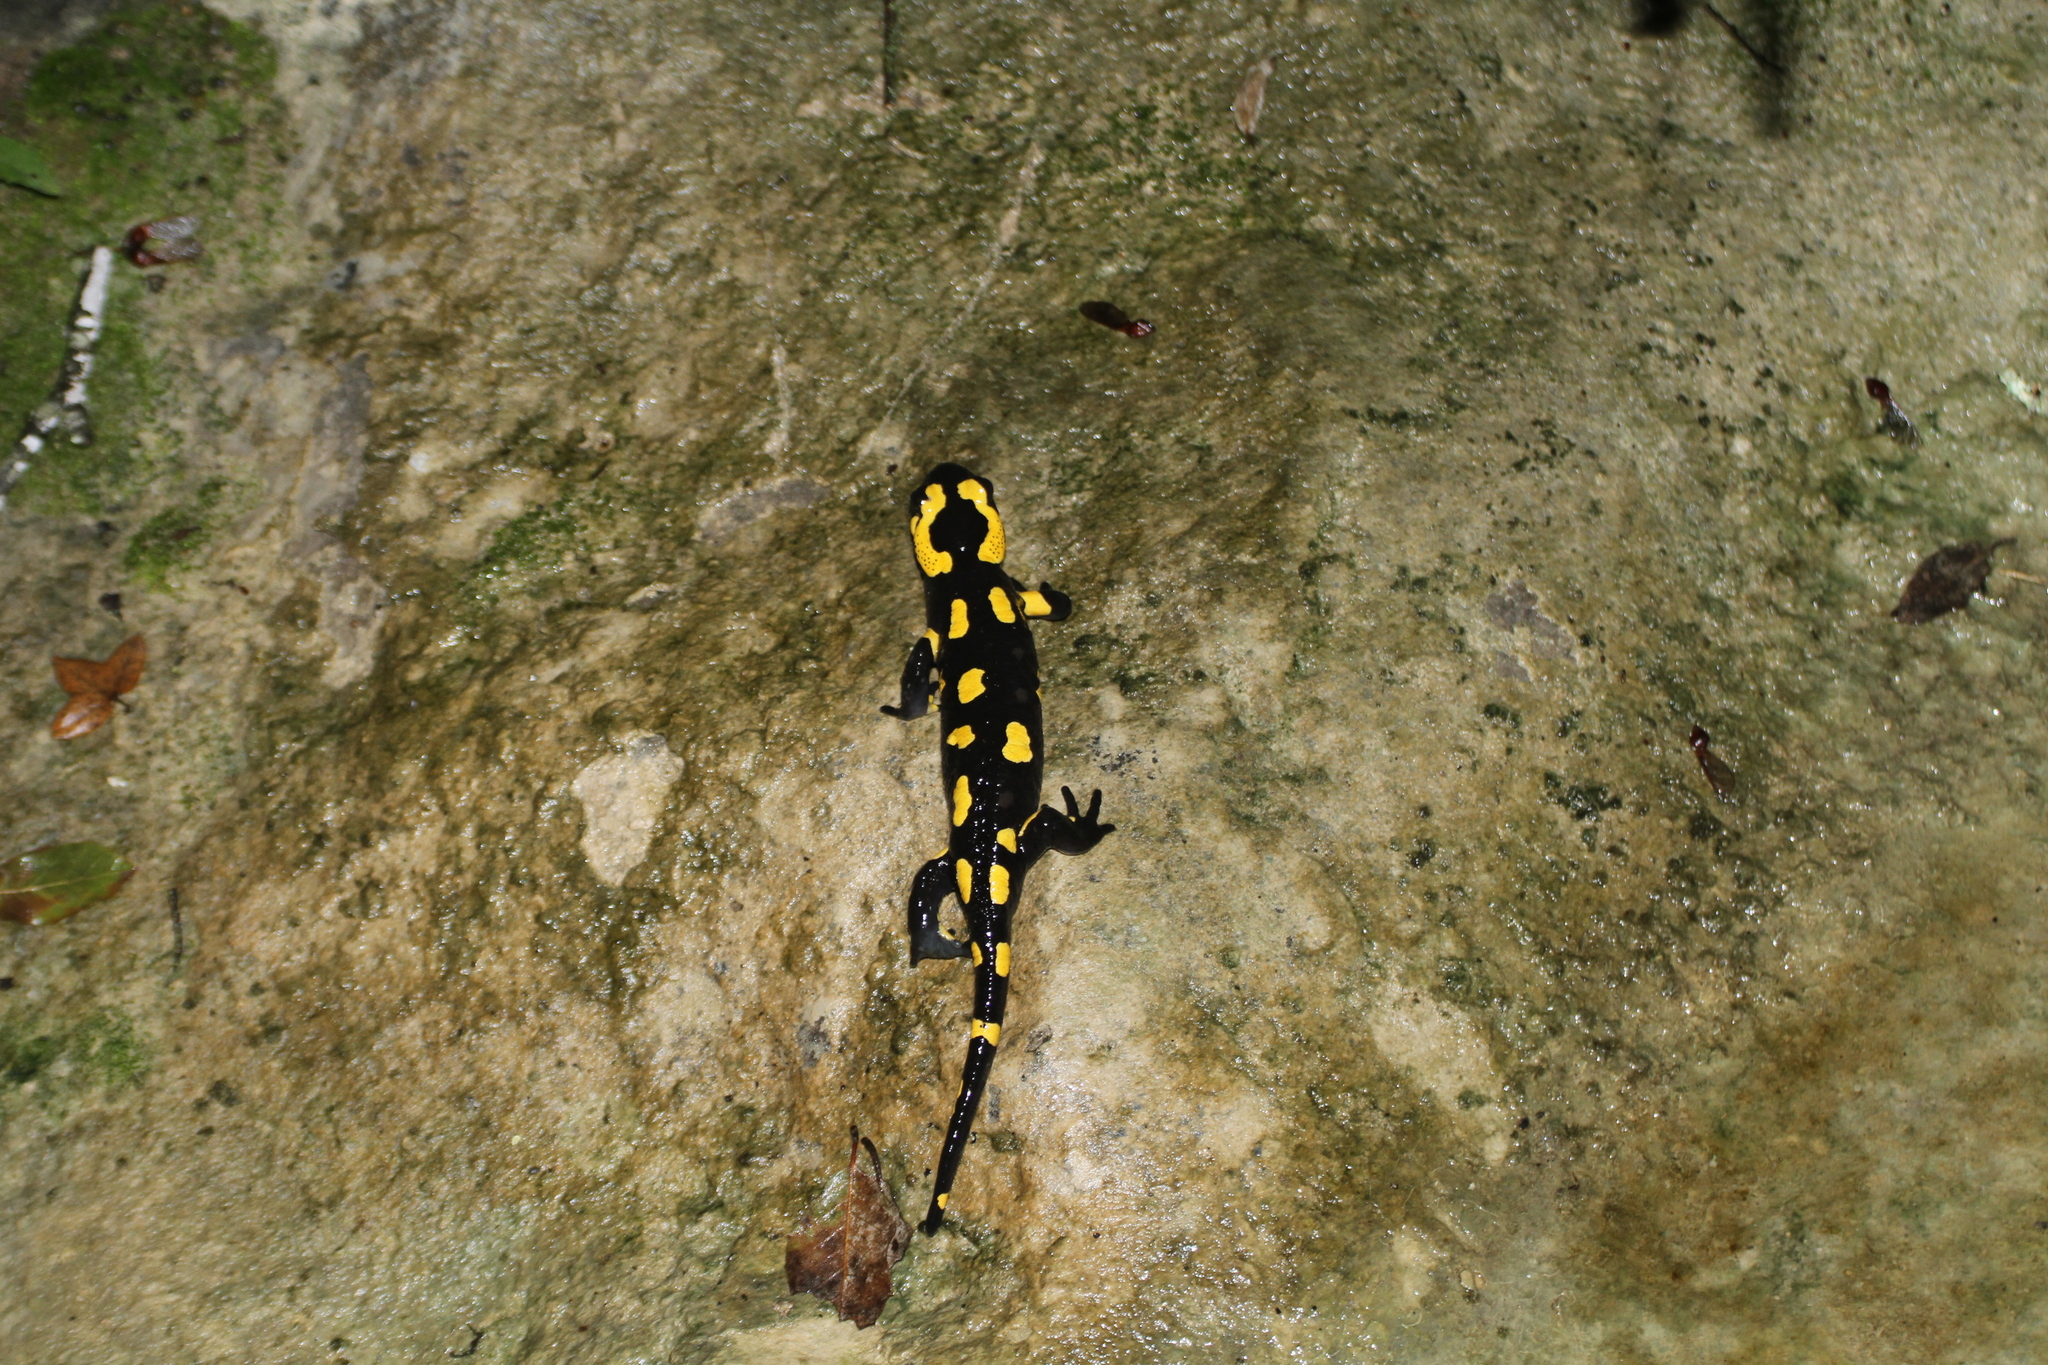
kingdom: Animalia
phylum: Chordata
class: Amphibia
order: Caudata
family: Salamandridae
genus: Salamandra
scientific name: Salamandra salamandra
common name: Fire salamander
